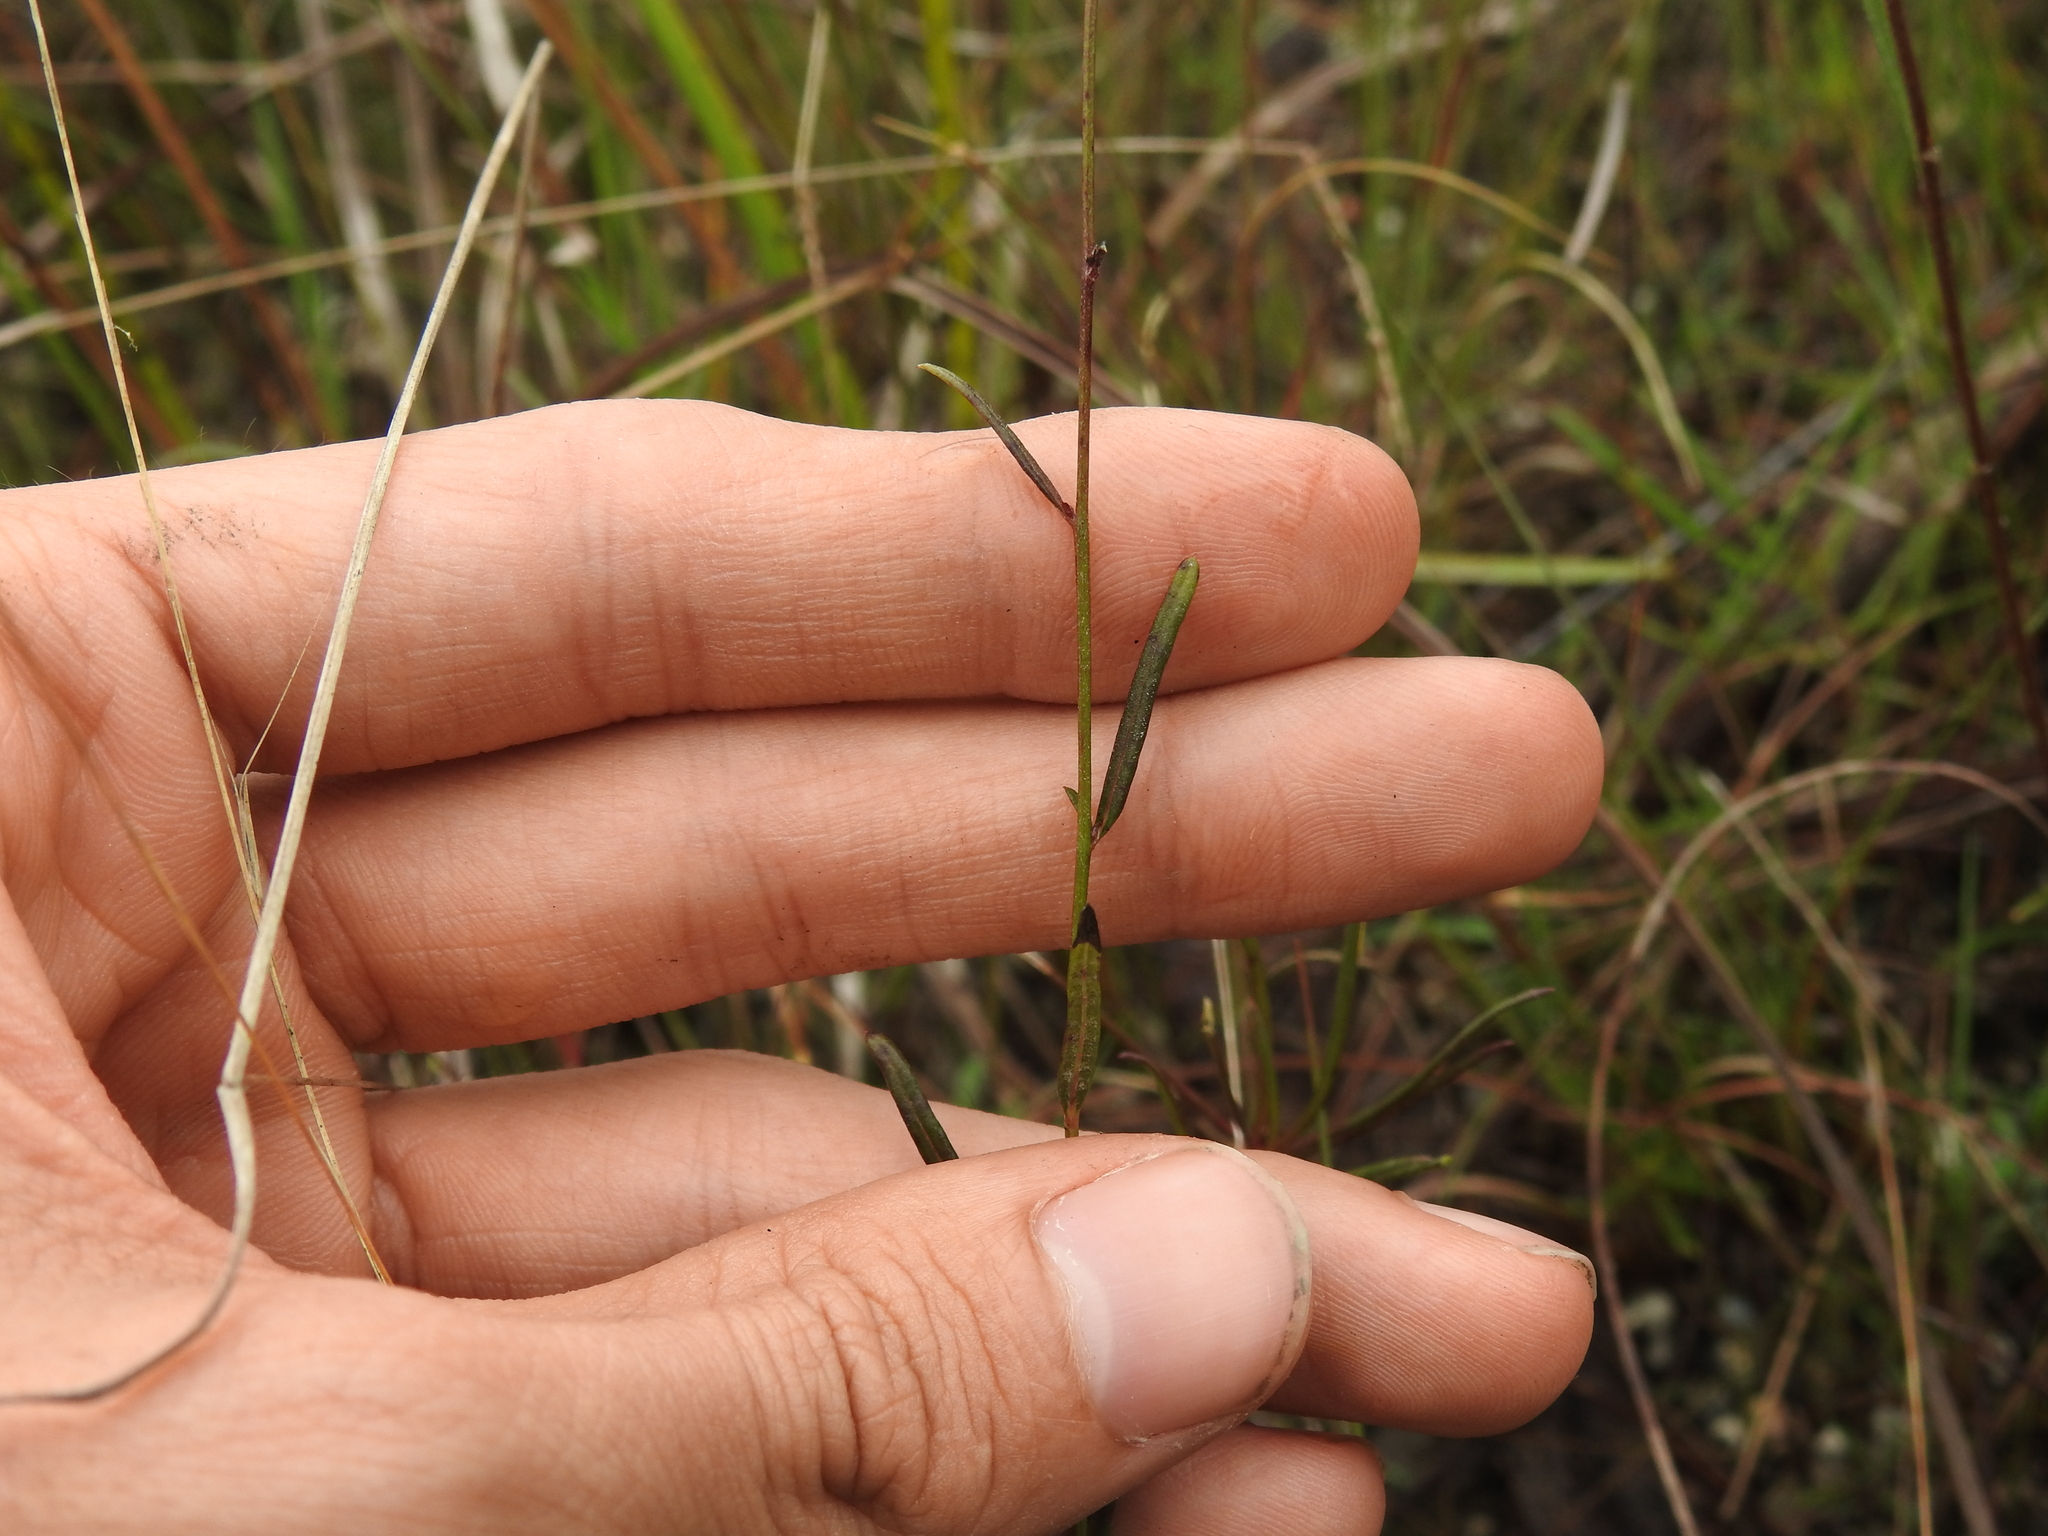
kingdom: Plantae
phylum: Tracheophyta
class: Magnoliopsida
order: Asterales
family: Asteraceae
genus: Vernonia
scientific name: Vernonia blodgettii
